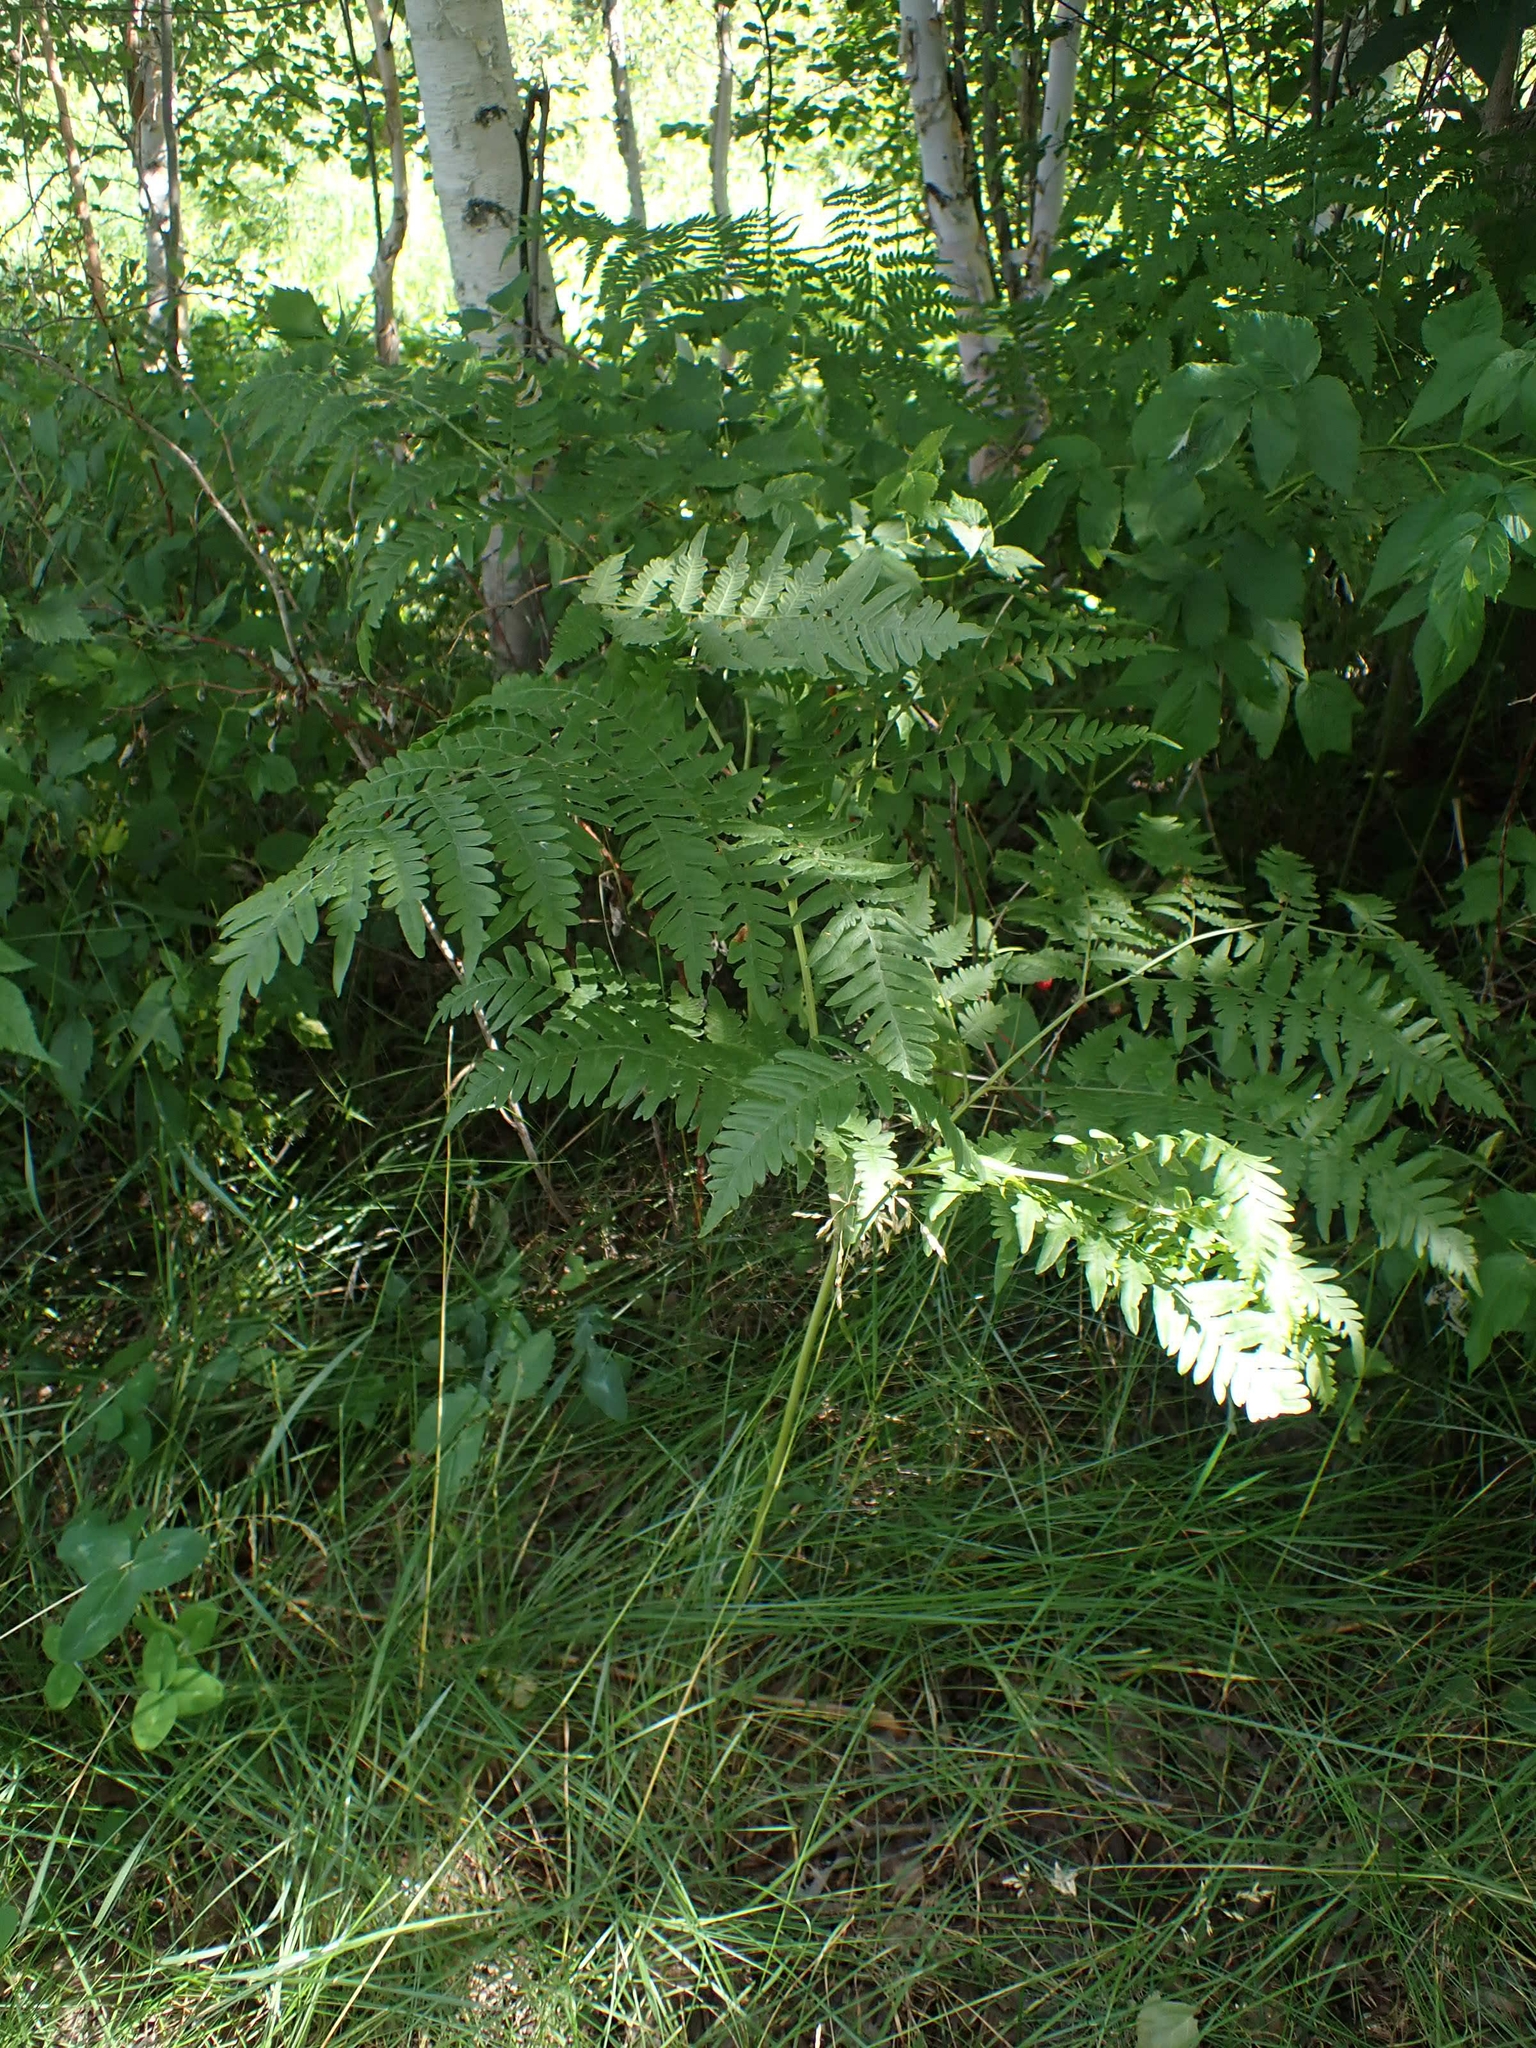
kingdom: Plantae
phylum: Tracheophyta
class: Polypodiopsida
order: Polypodiales
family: Dennstaedtiaceae
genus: Pteridium
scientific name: Pteridium aquilinum
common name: Bracken
